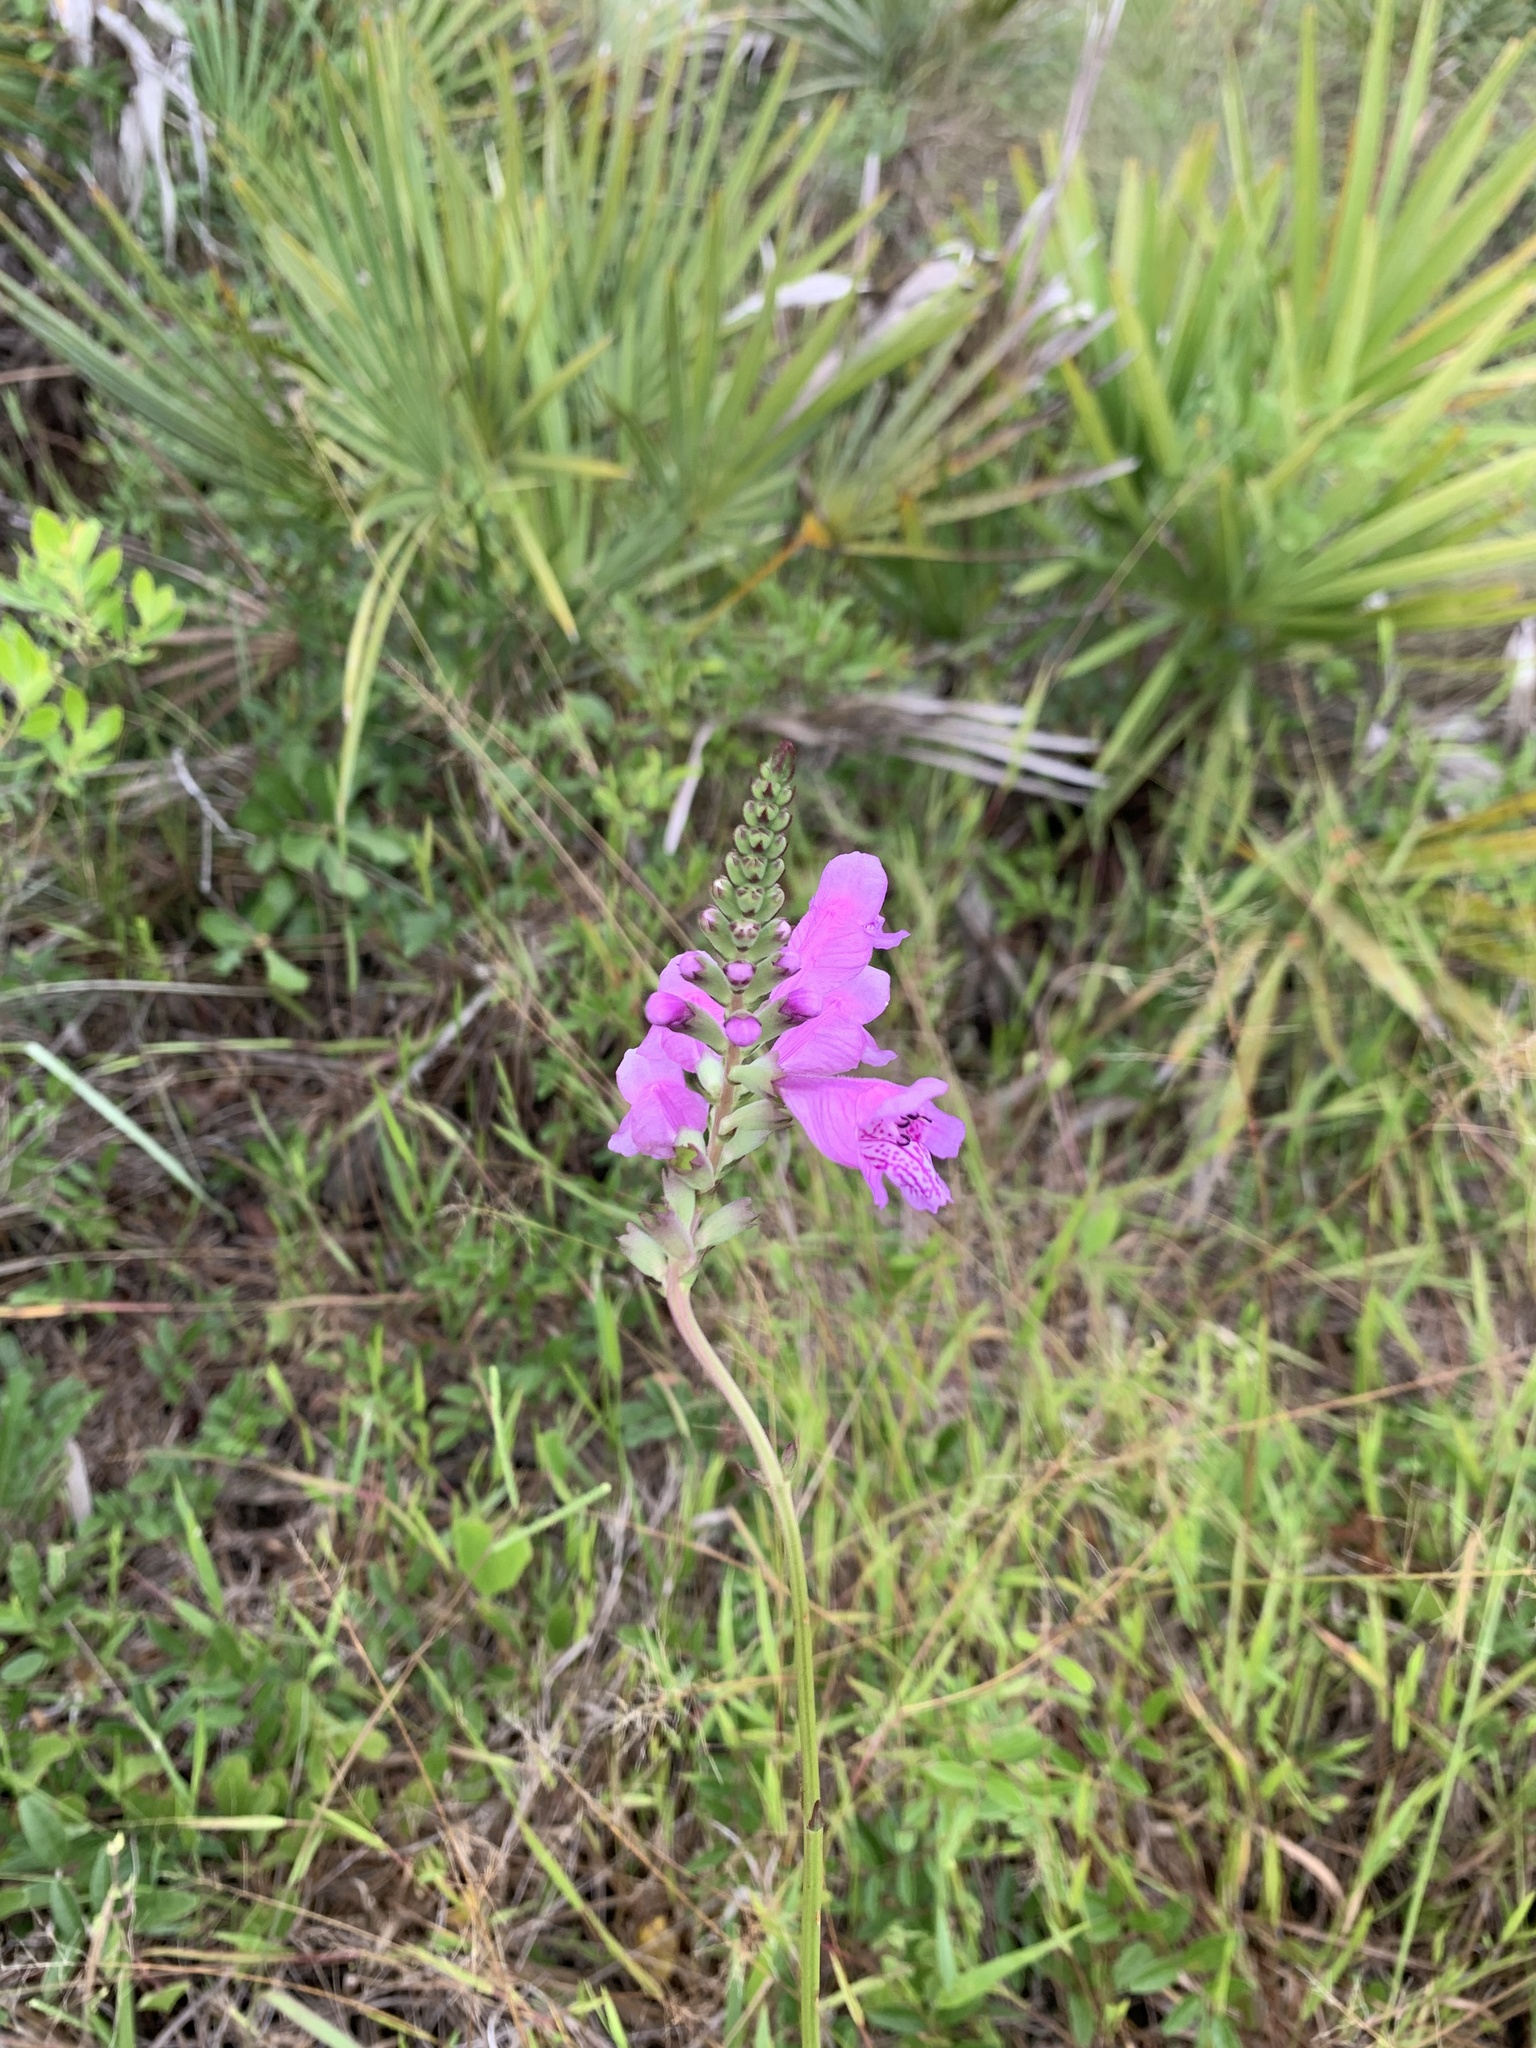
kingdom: Plantae
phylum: Tracheophyta
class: Magnoliopsida
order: Lamiales
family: Lamiaceae
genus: Physostegia
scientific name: Physostegia purpurea
